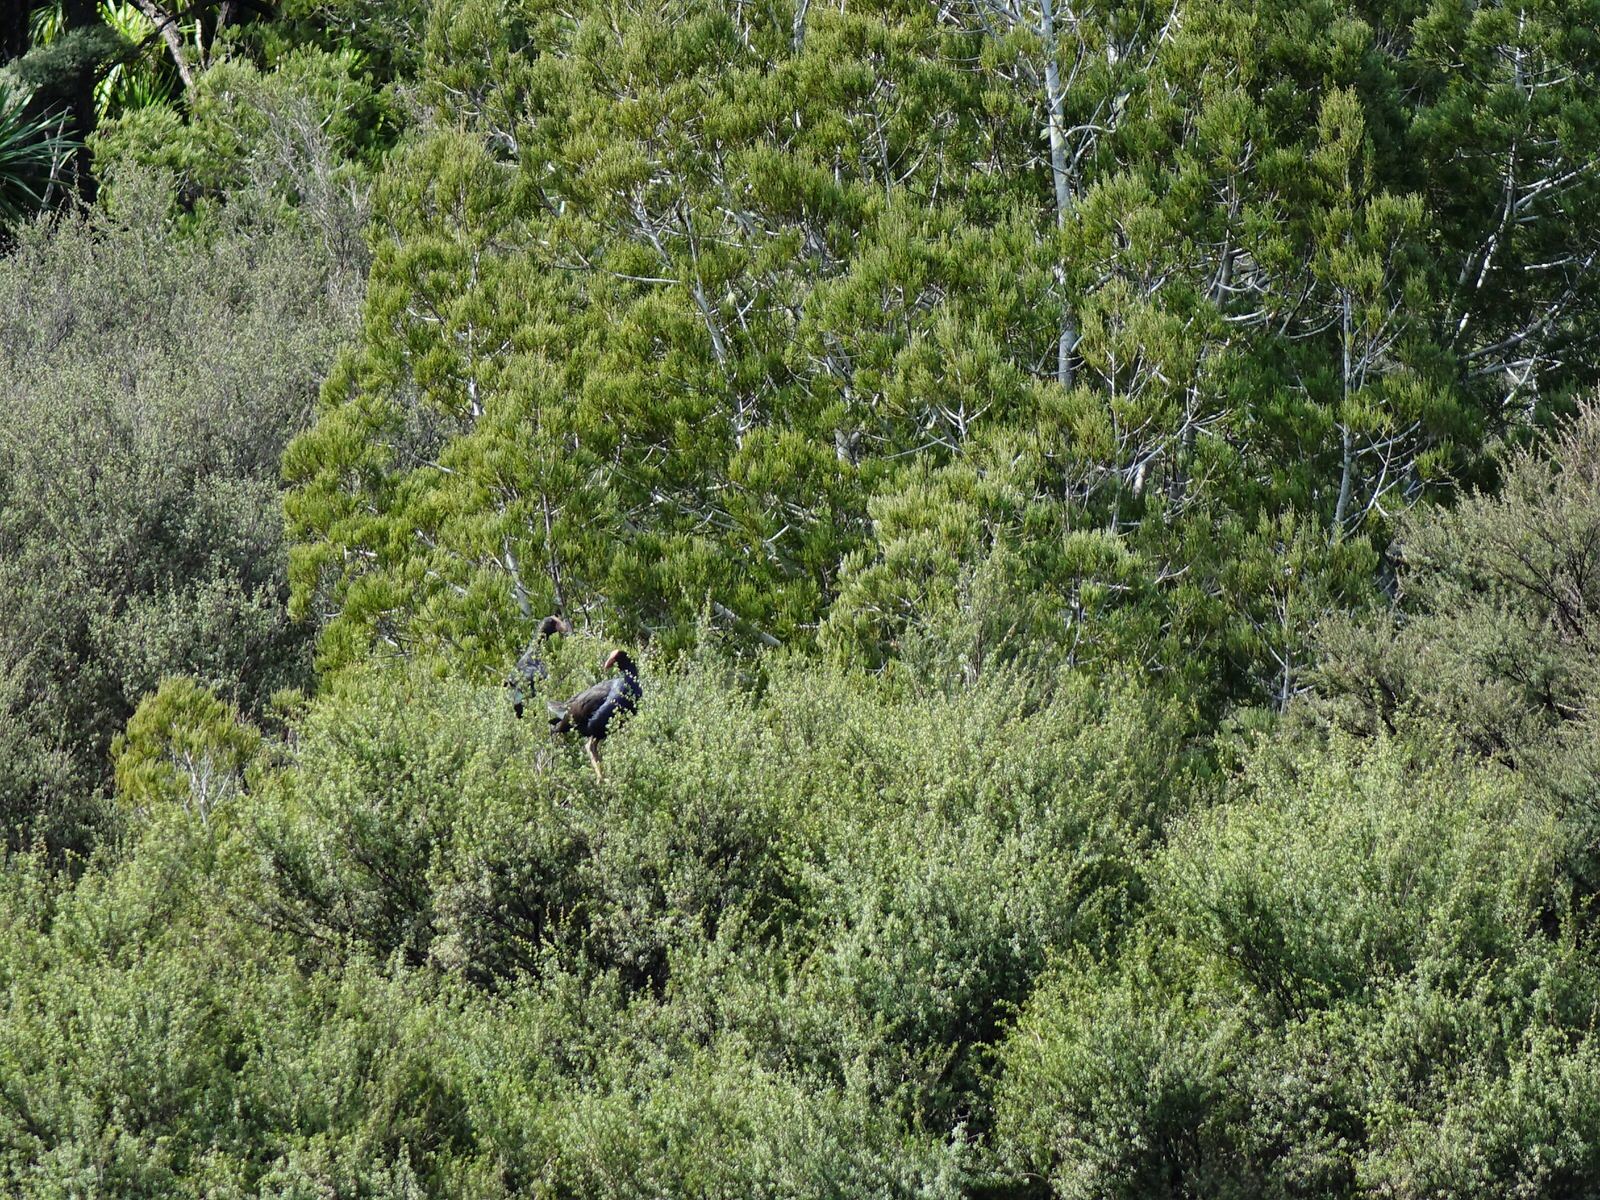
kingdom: Animalia
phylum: Chordata
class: Aves
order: Gruiformes
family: Rallidae
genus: Porphyrio
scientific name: Porphyrio melanotus
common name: Australasian swamphen
